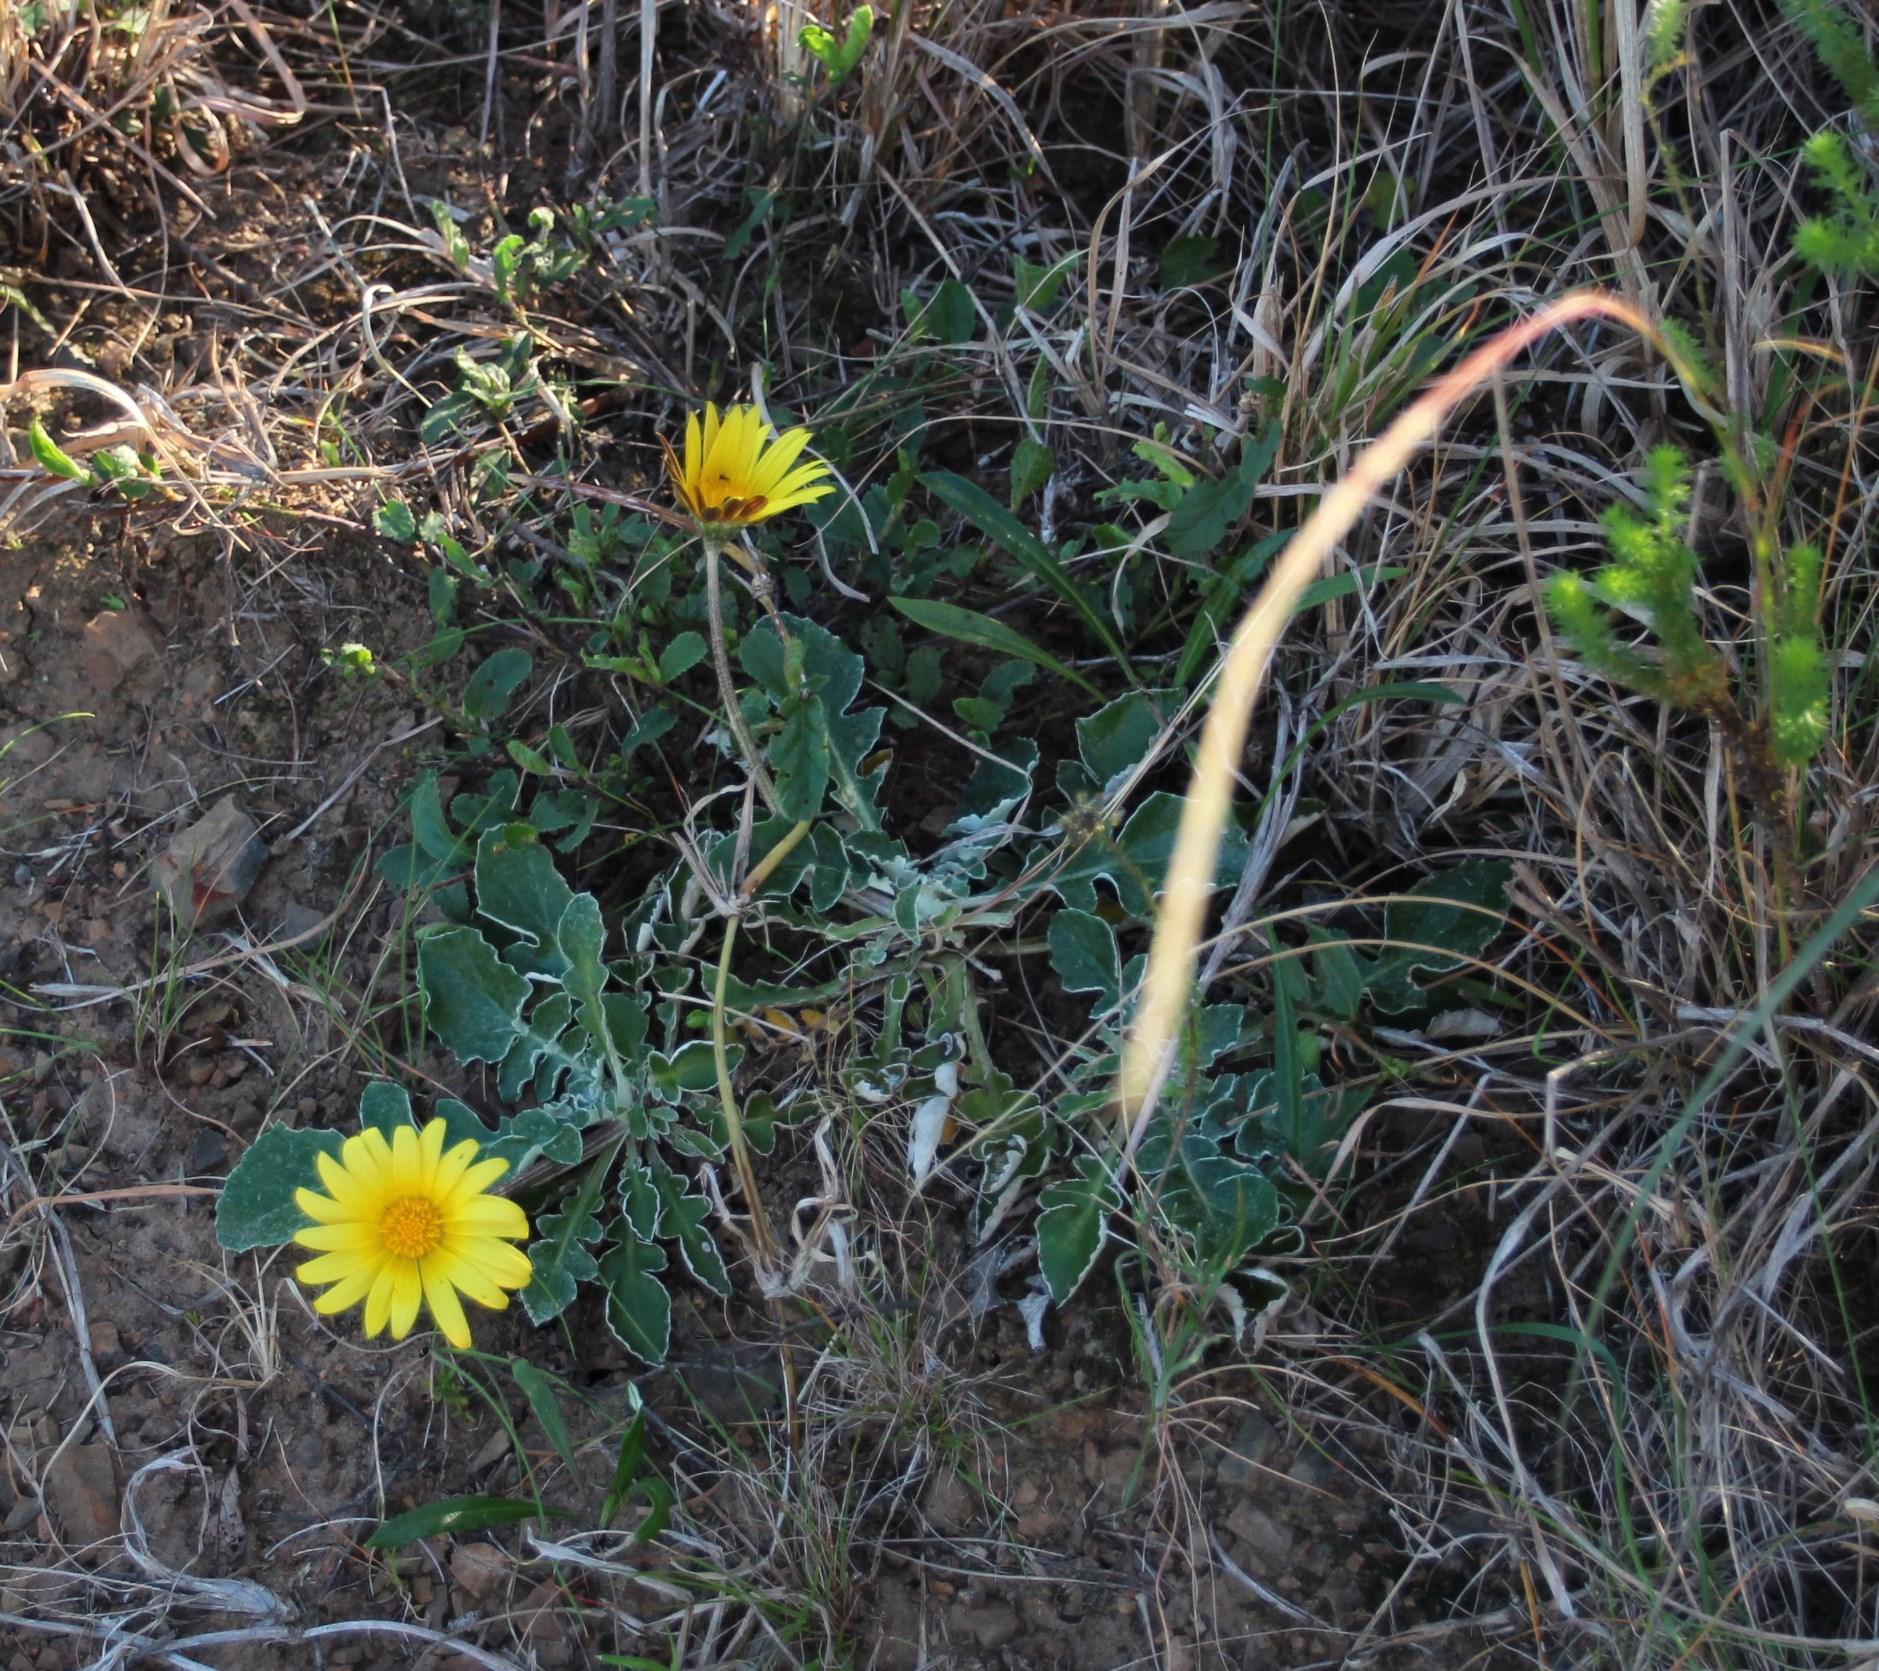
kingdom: Plantae
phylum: Tracheophyta
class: Magnoliopsida
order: Asterales
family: Asteraceae
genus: Haplocarpha
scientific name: Haplocarpha lyrata
